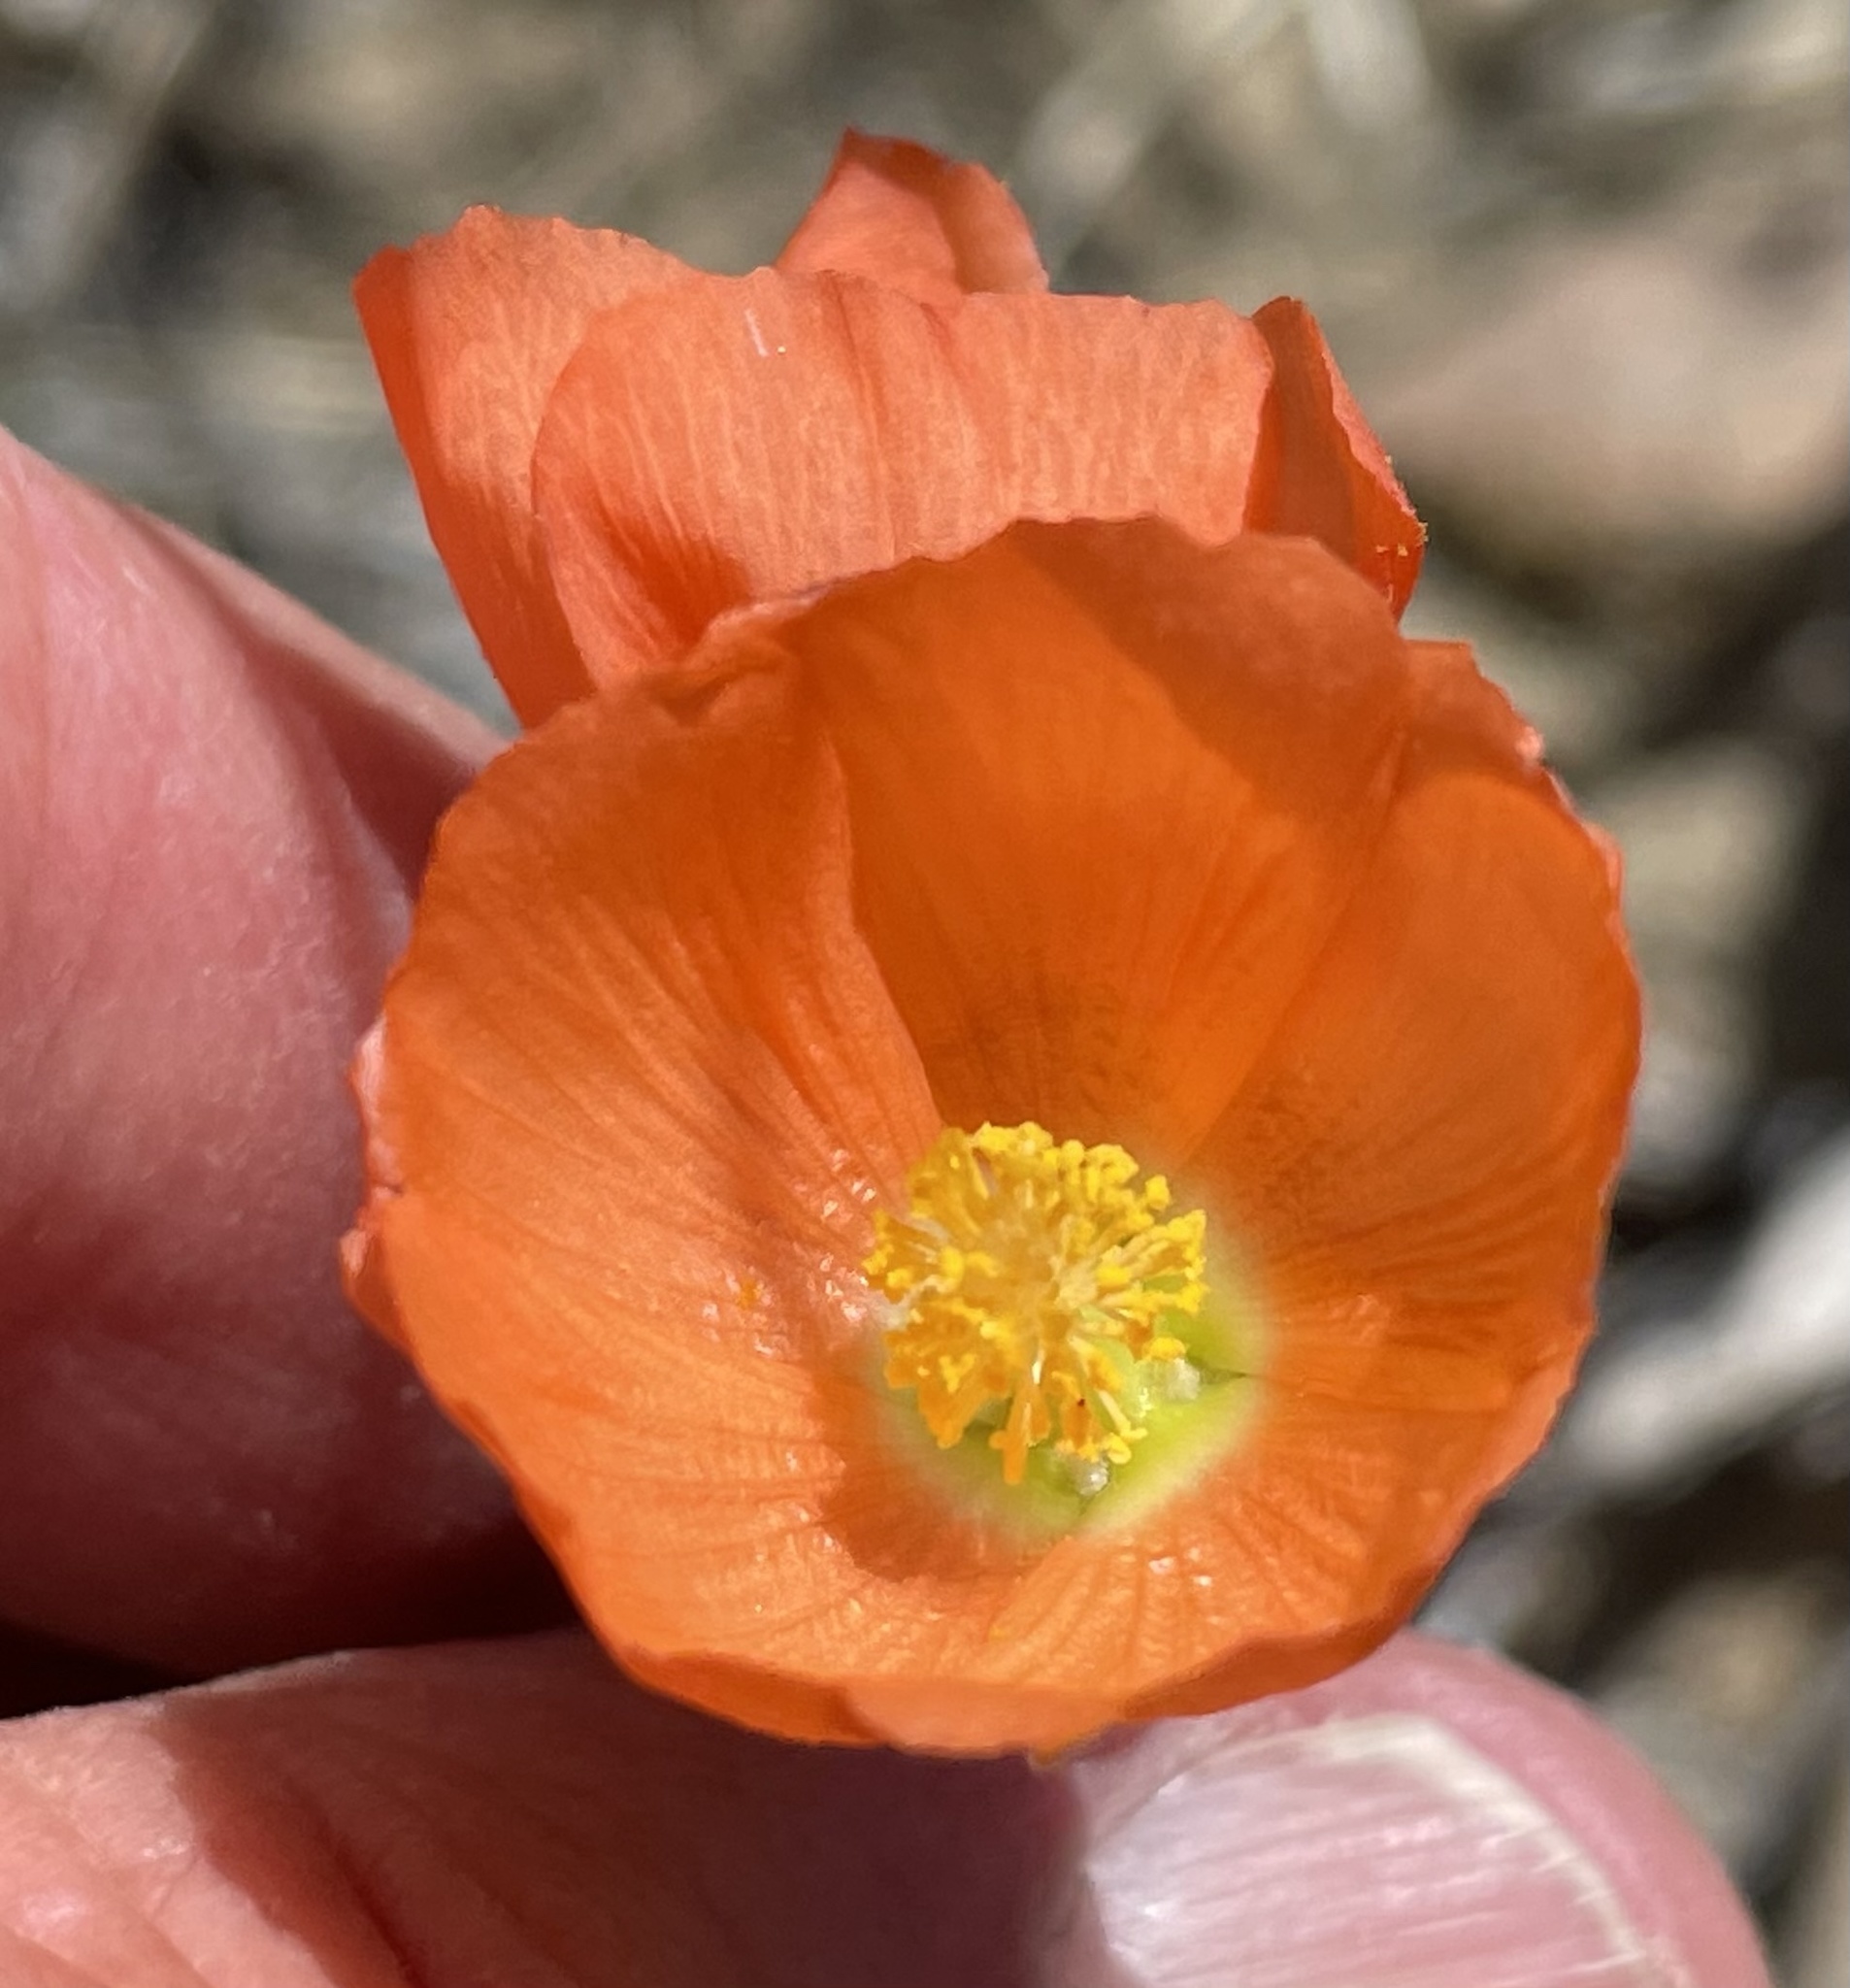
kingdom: Plantae
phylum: Tracheophyta
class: Magnoliopsida
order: Malvales
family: Malvaceae
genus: Sphaeralcea
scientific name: Sphaeralcea ambigua
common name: Apricot globe-mallow
